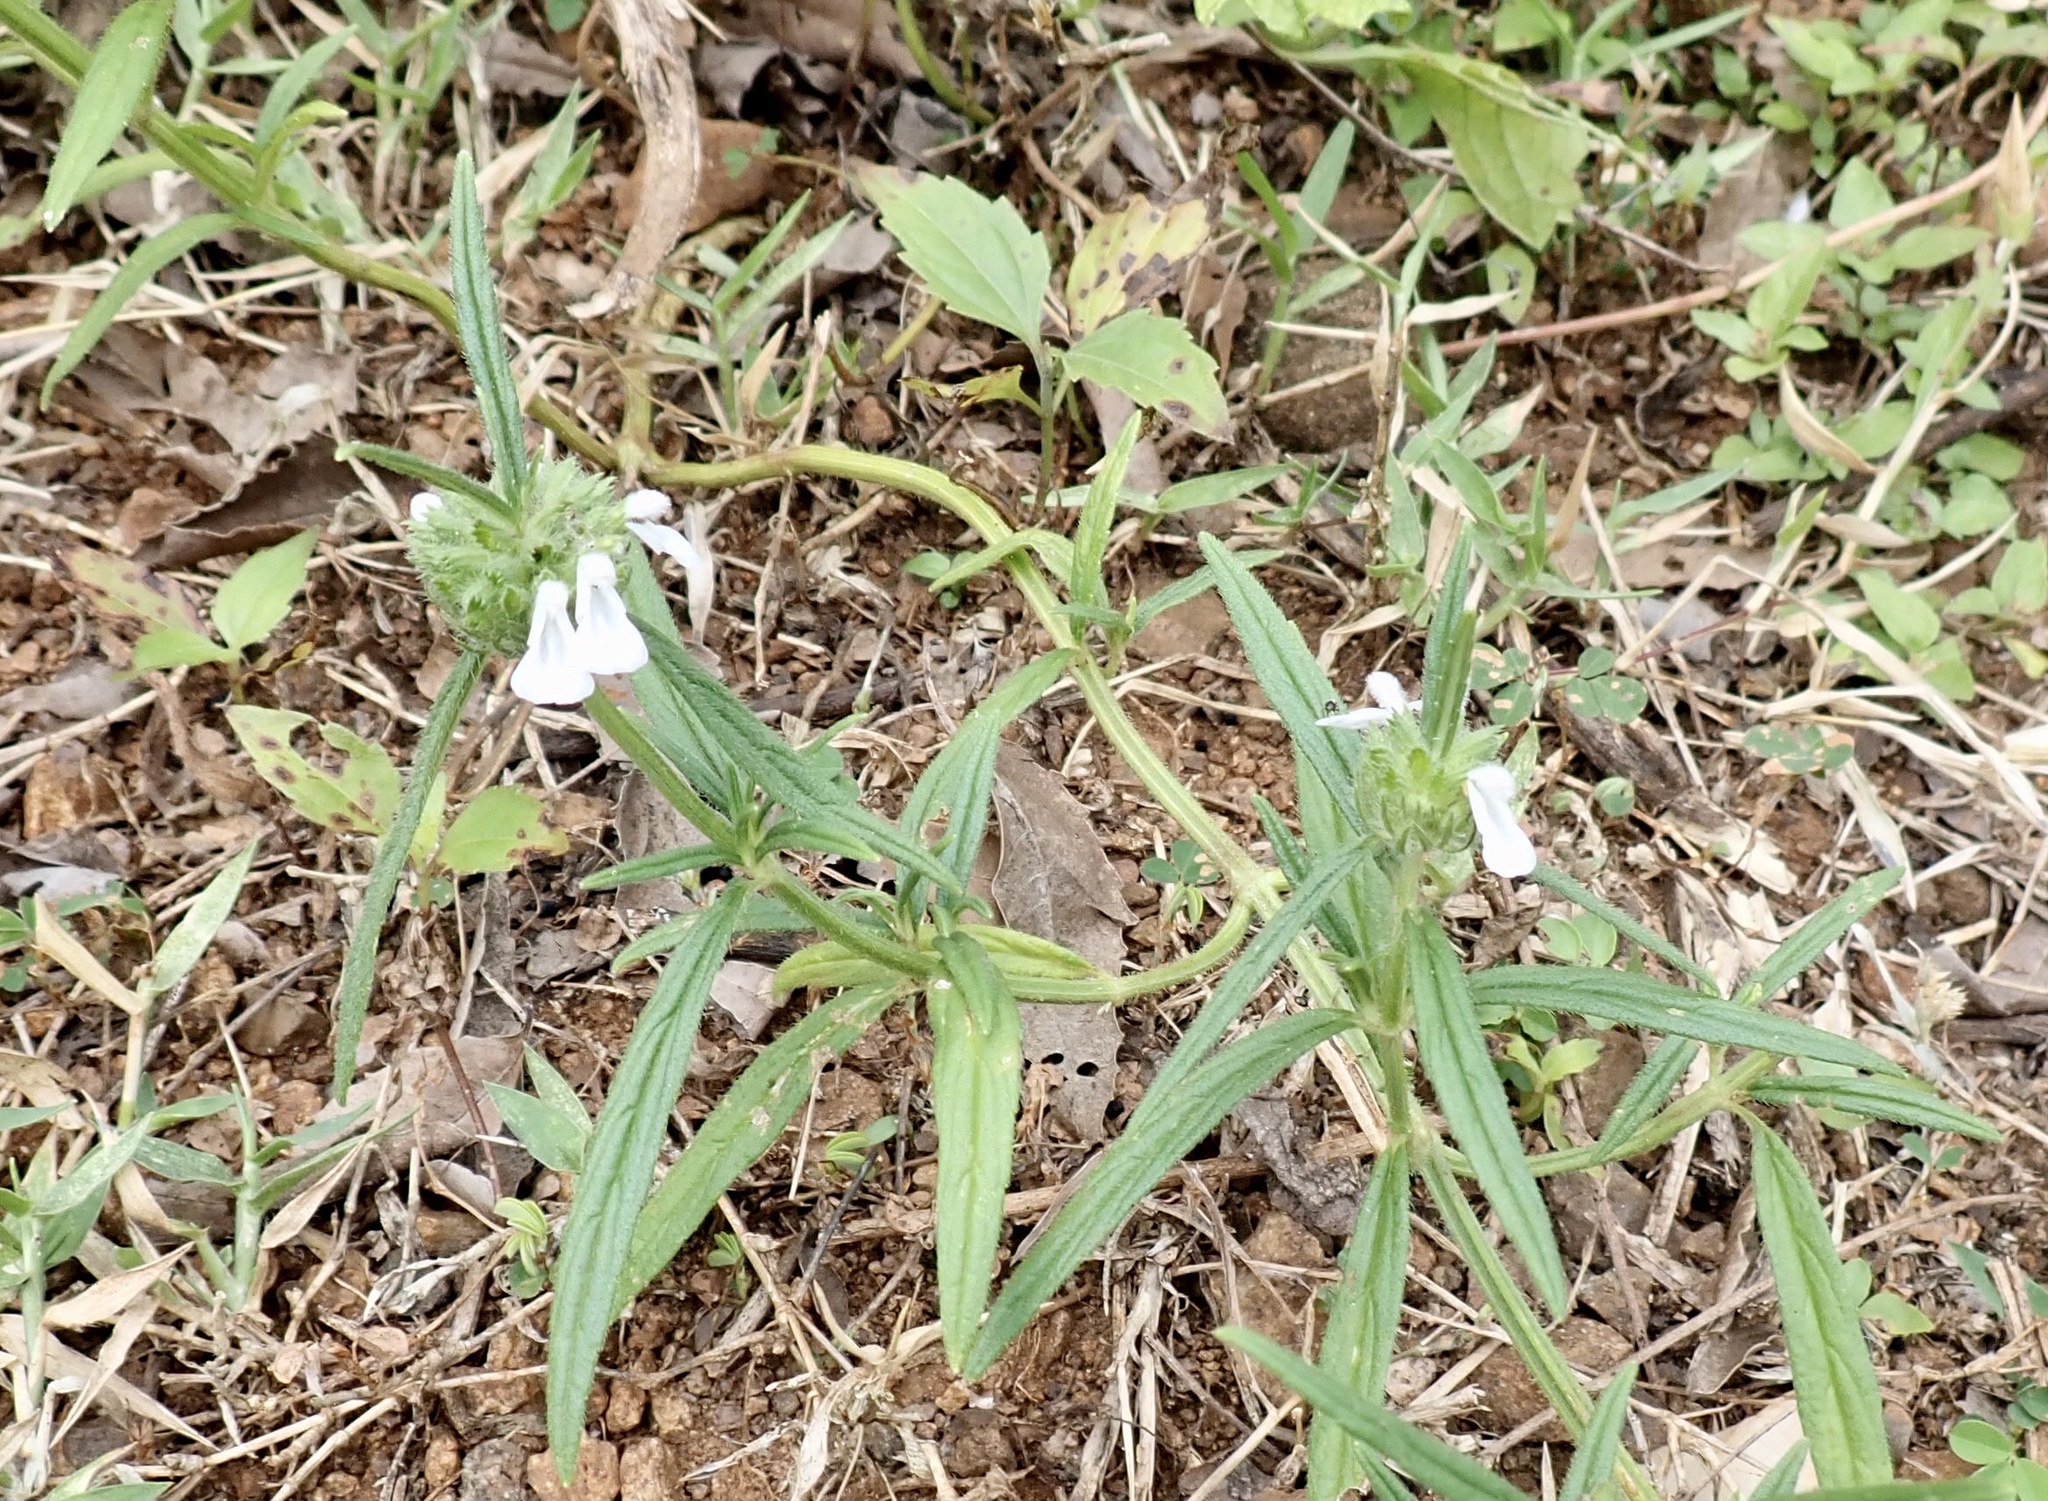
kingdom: Plantae
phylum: Tracheophyta
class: Magnoliopsida
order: Lamiales
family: Lamiaceae
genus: Leucas
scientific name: Leucas aspera
